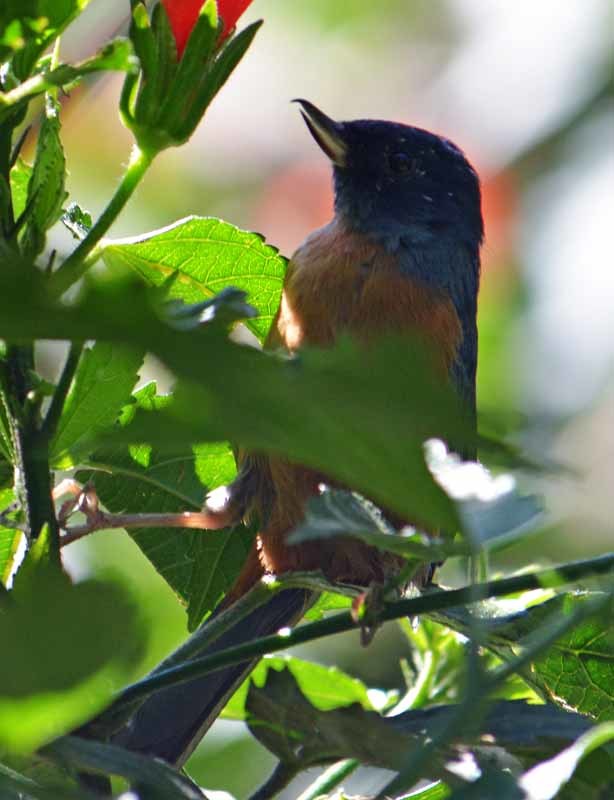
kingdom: Animalia
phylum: Chordata
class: Aves
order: Passeriformes
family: Thraupidae
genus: Diglossa
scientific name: Diglossa baritula
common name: Cinnamon-bellied flowerpiercer
